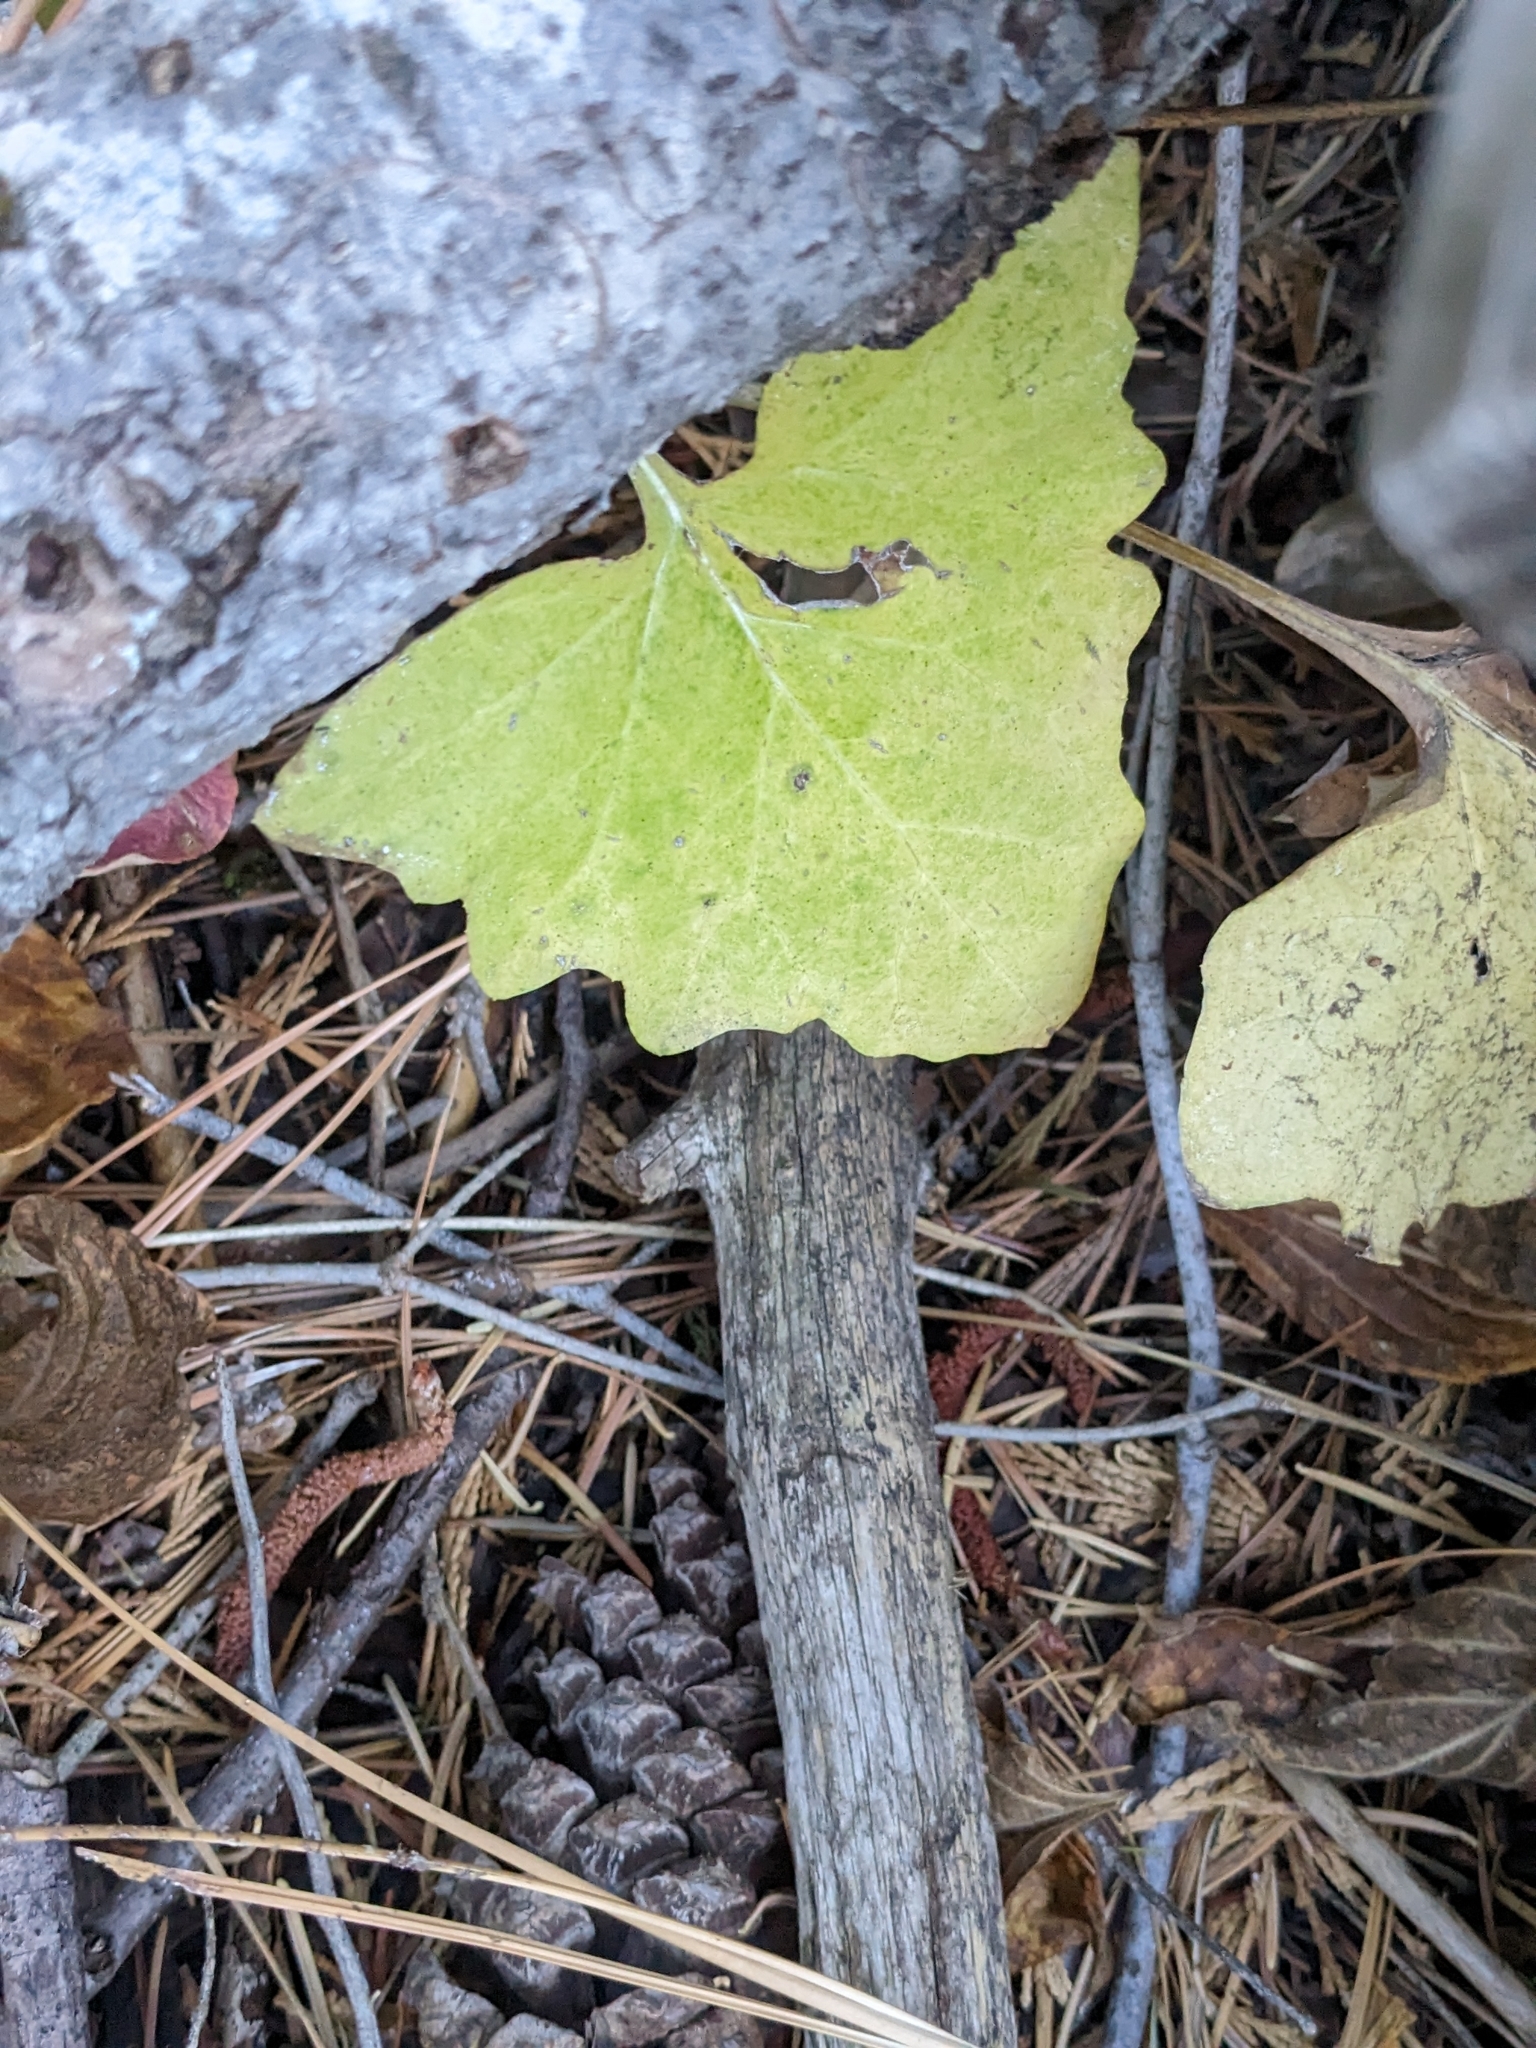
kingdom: Plantae
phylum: Tracheophyta
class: Magnoliopsida
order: Asterales
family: Asteraceae
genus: Adenocaulon
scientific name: Adenocaulon bicolor
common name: Trailplant
